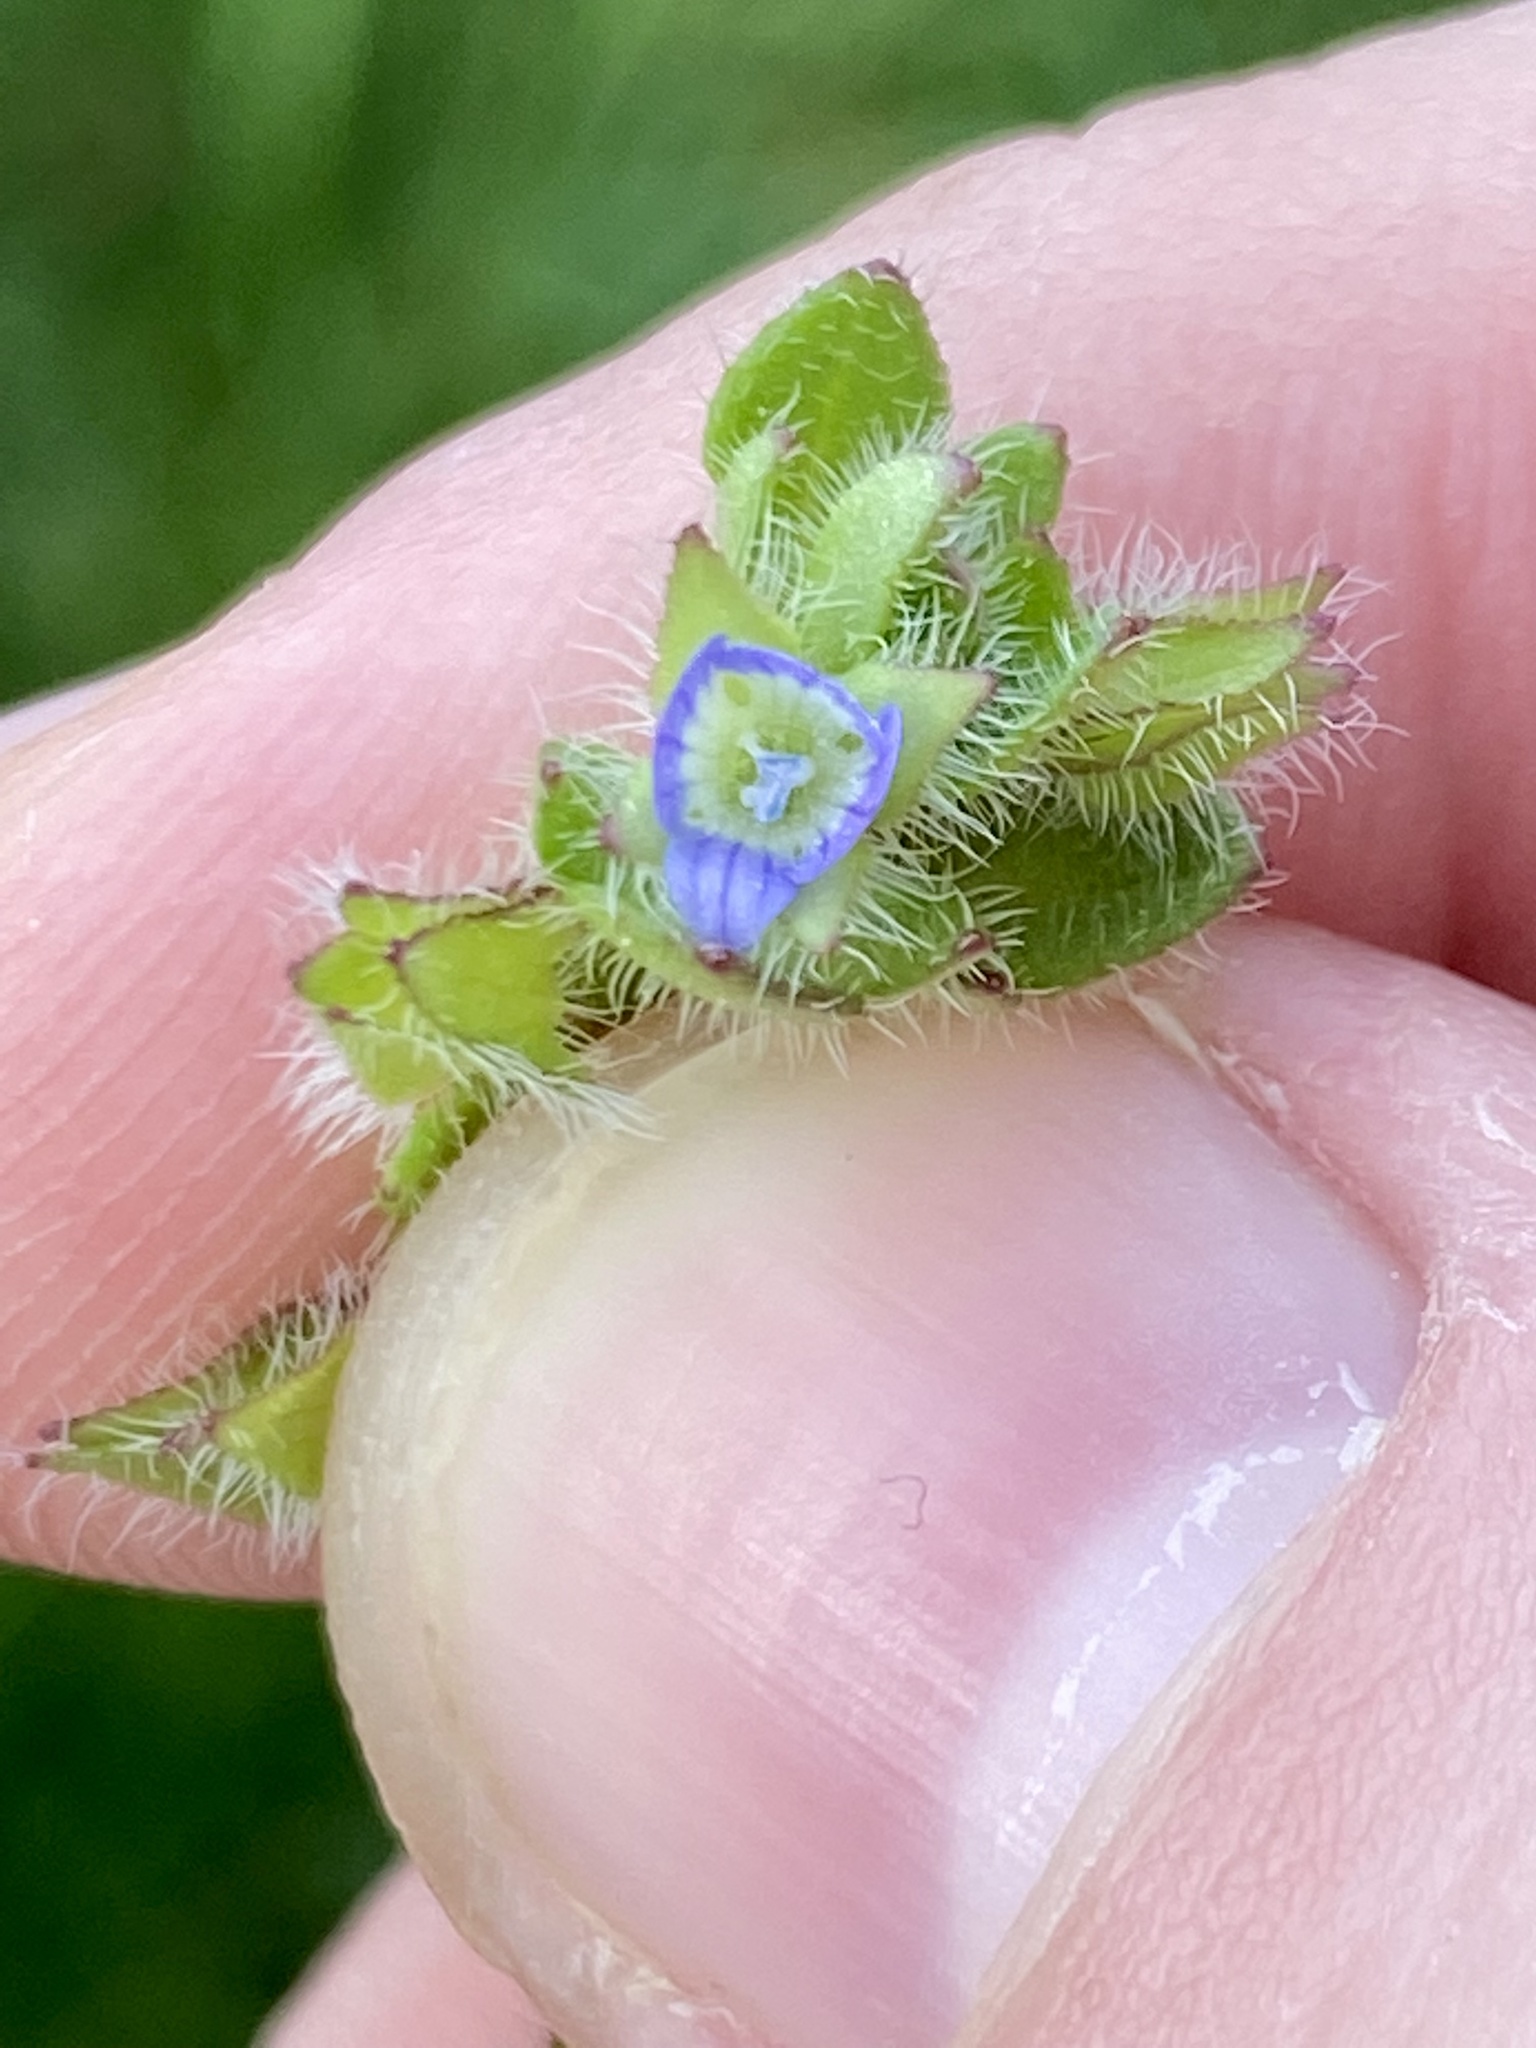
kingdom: Plantae
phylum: Tracheophyta
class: Magnoliopsida
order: Lamiales
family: Plantaginaceae
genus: Veronica
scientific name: Veronica hederifolia
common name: Ivy-leaved speedwell
